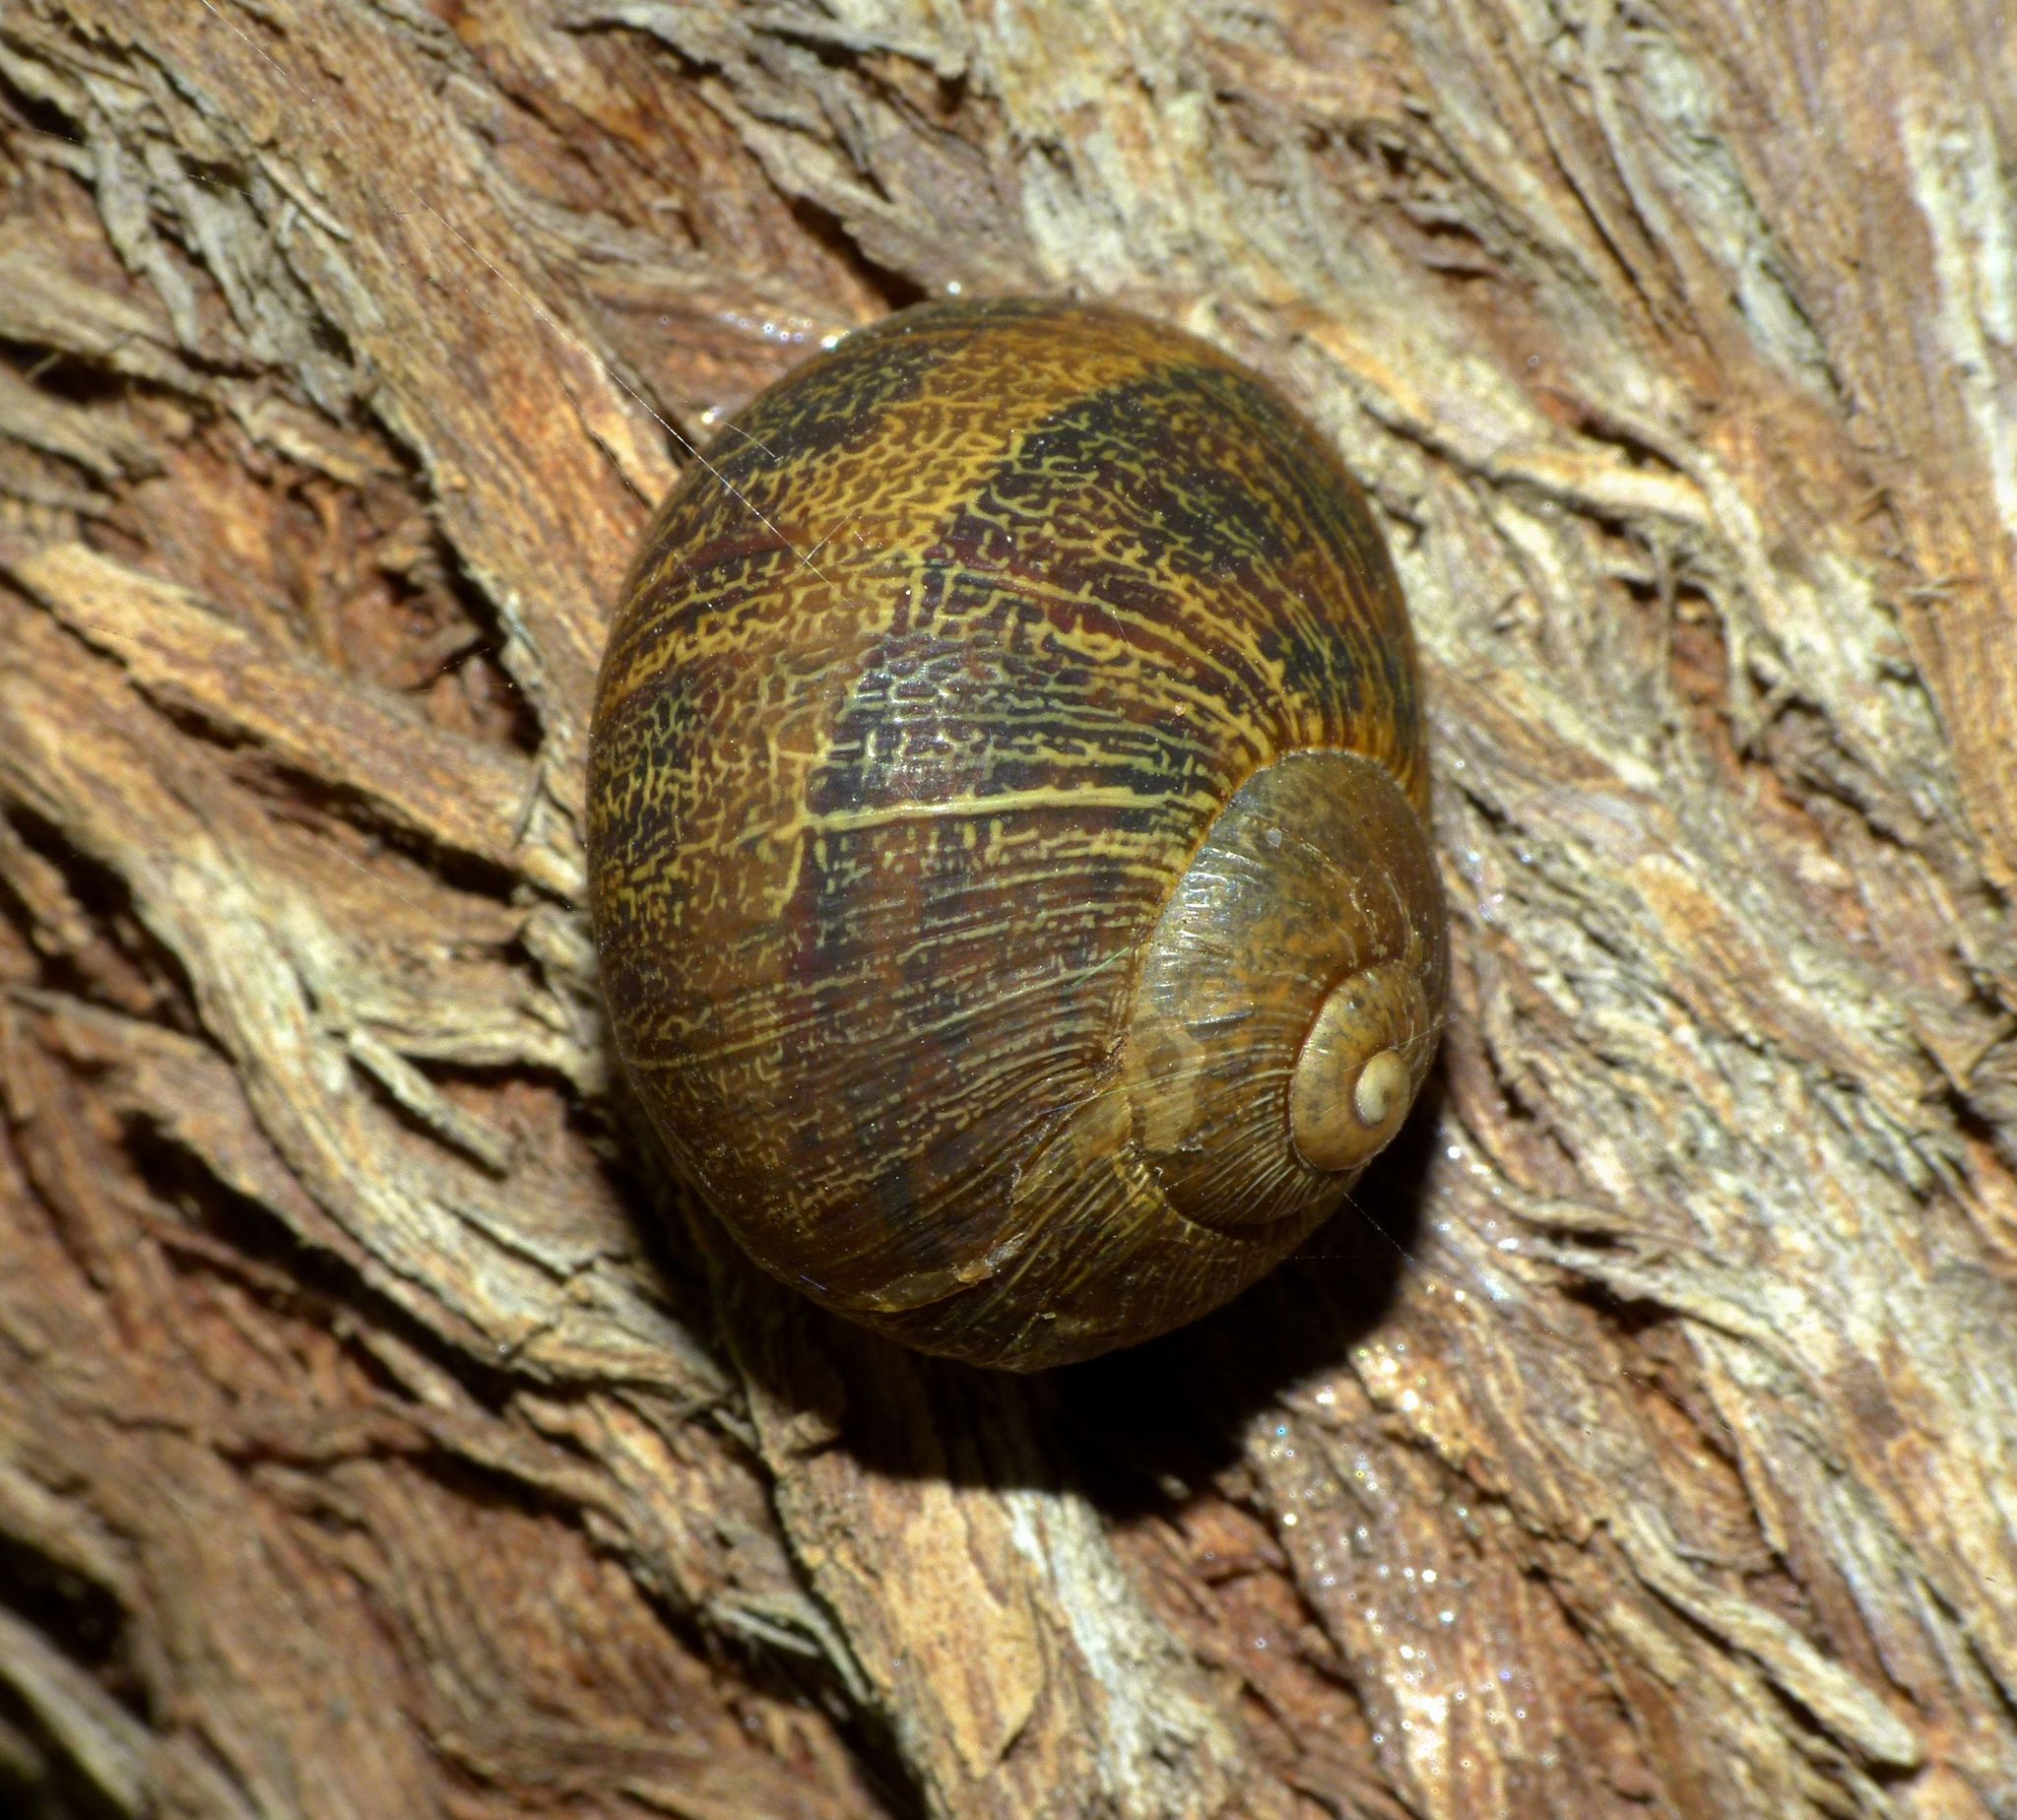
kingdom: Animalia
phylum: Mollusca
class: Gastropoda
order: Stylommatophora
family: Helicidae
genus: Cornu
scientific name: Cornu aspersum
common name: Brown garden snail
